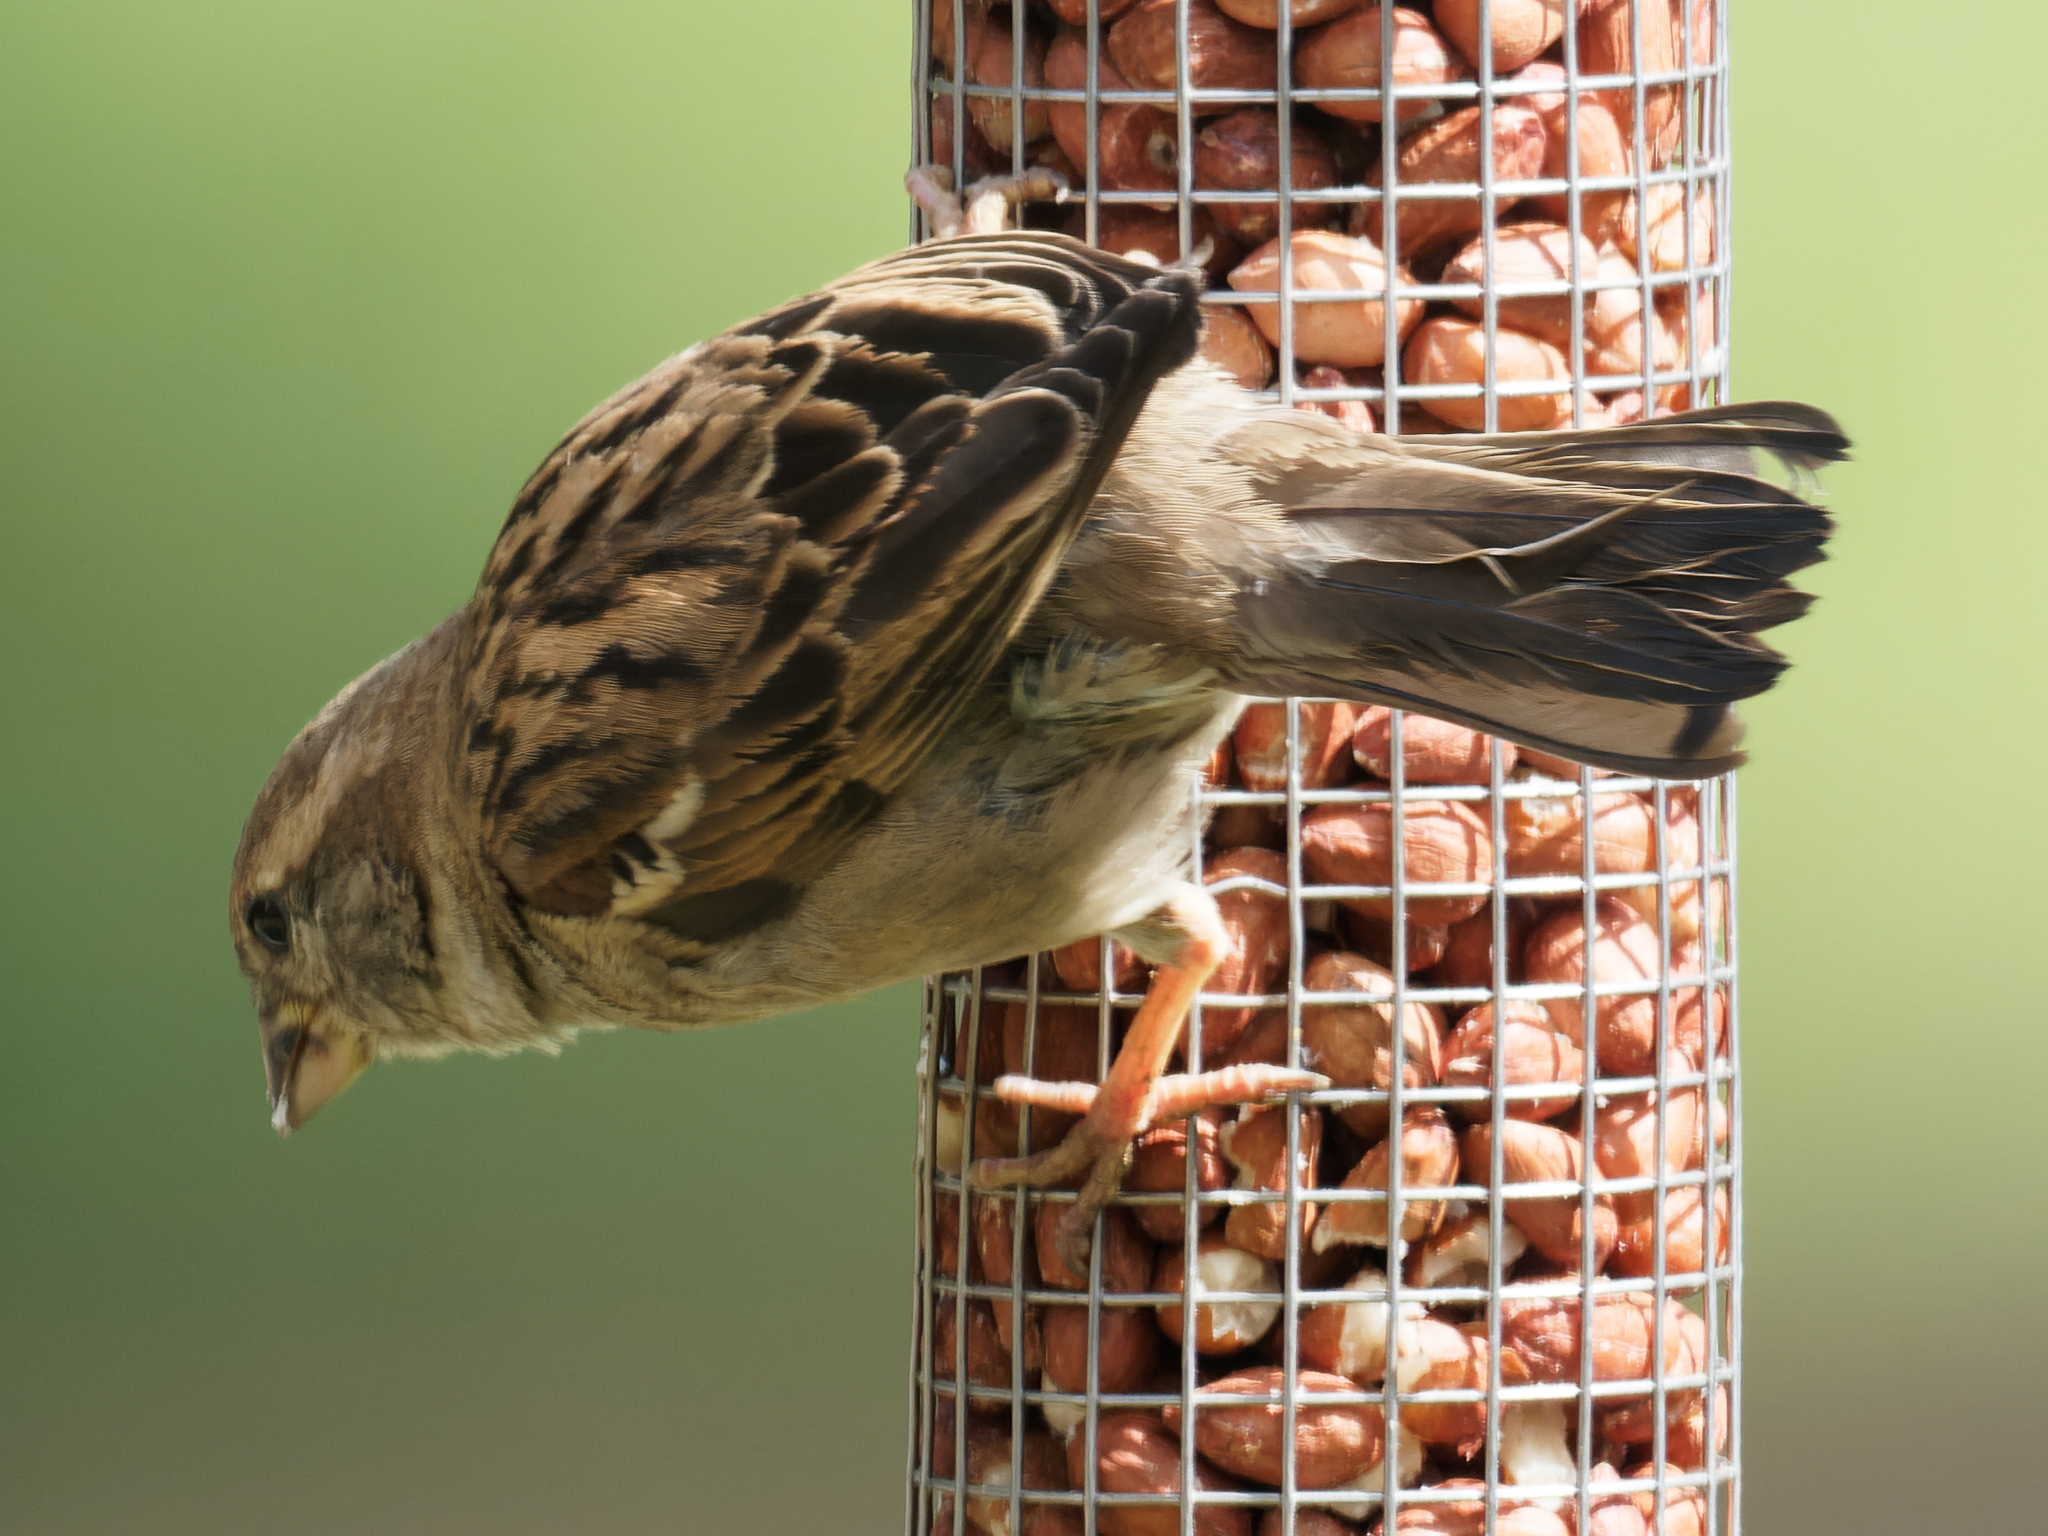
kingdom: Animalia
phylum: Chordata
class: Aves
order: Passeriformes
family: Passeridae
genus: Passer
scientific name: Passer domesticus
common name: House sparrow
